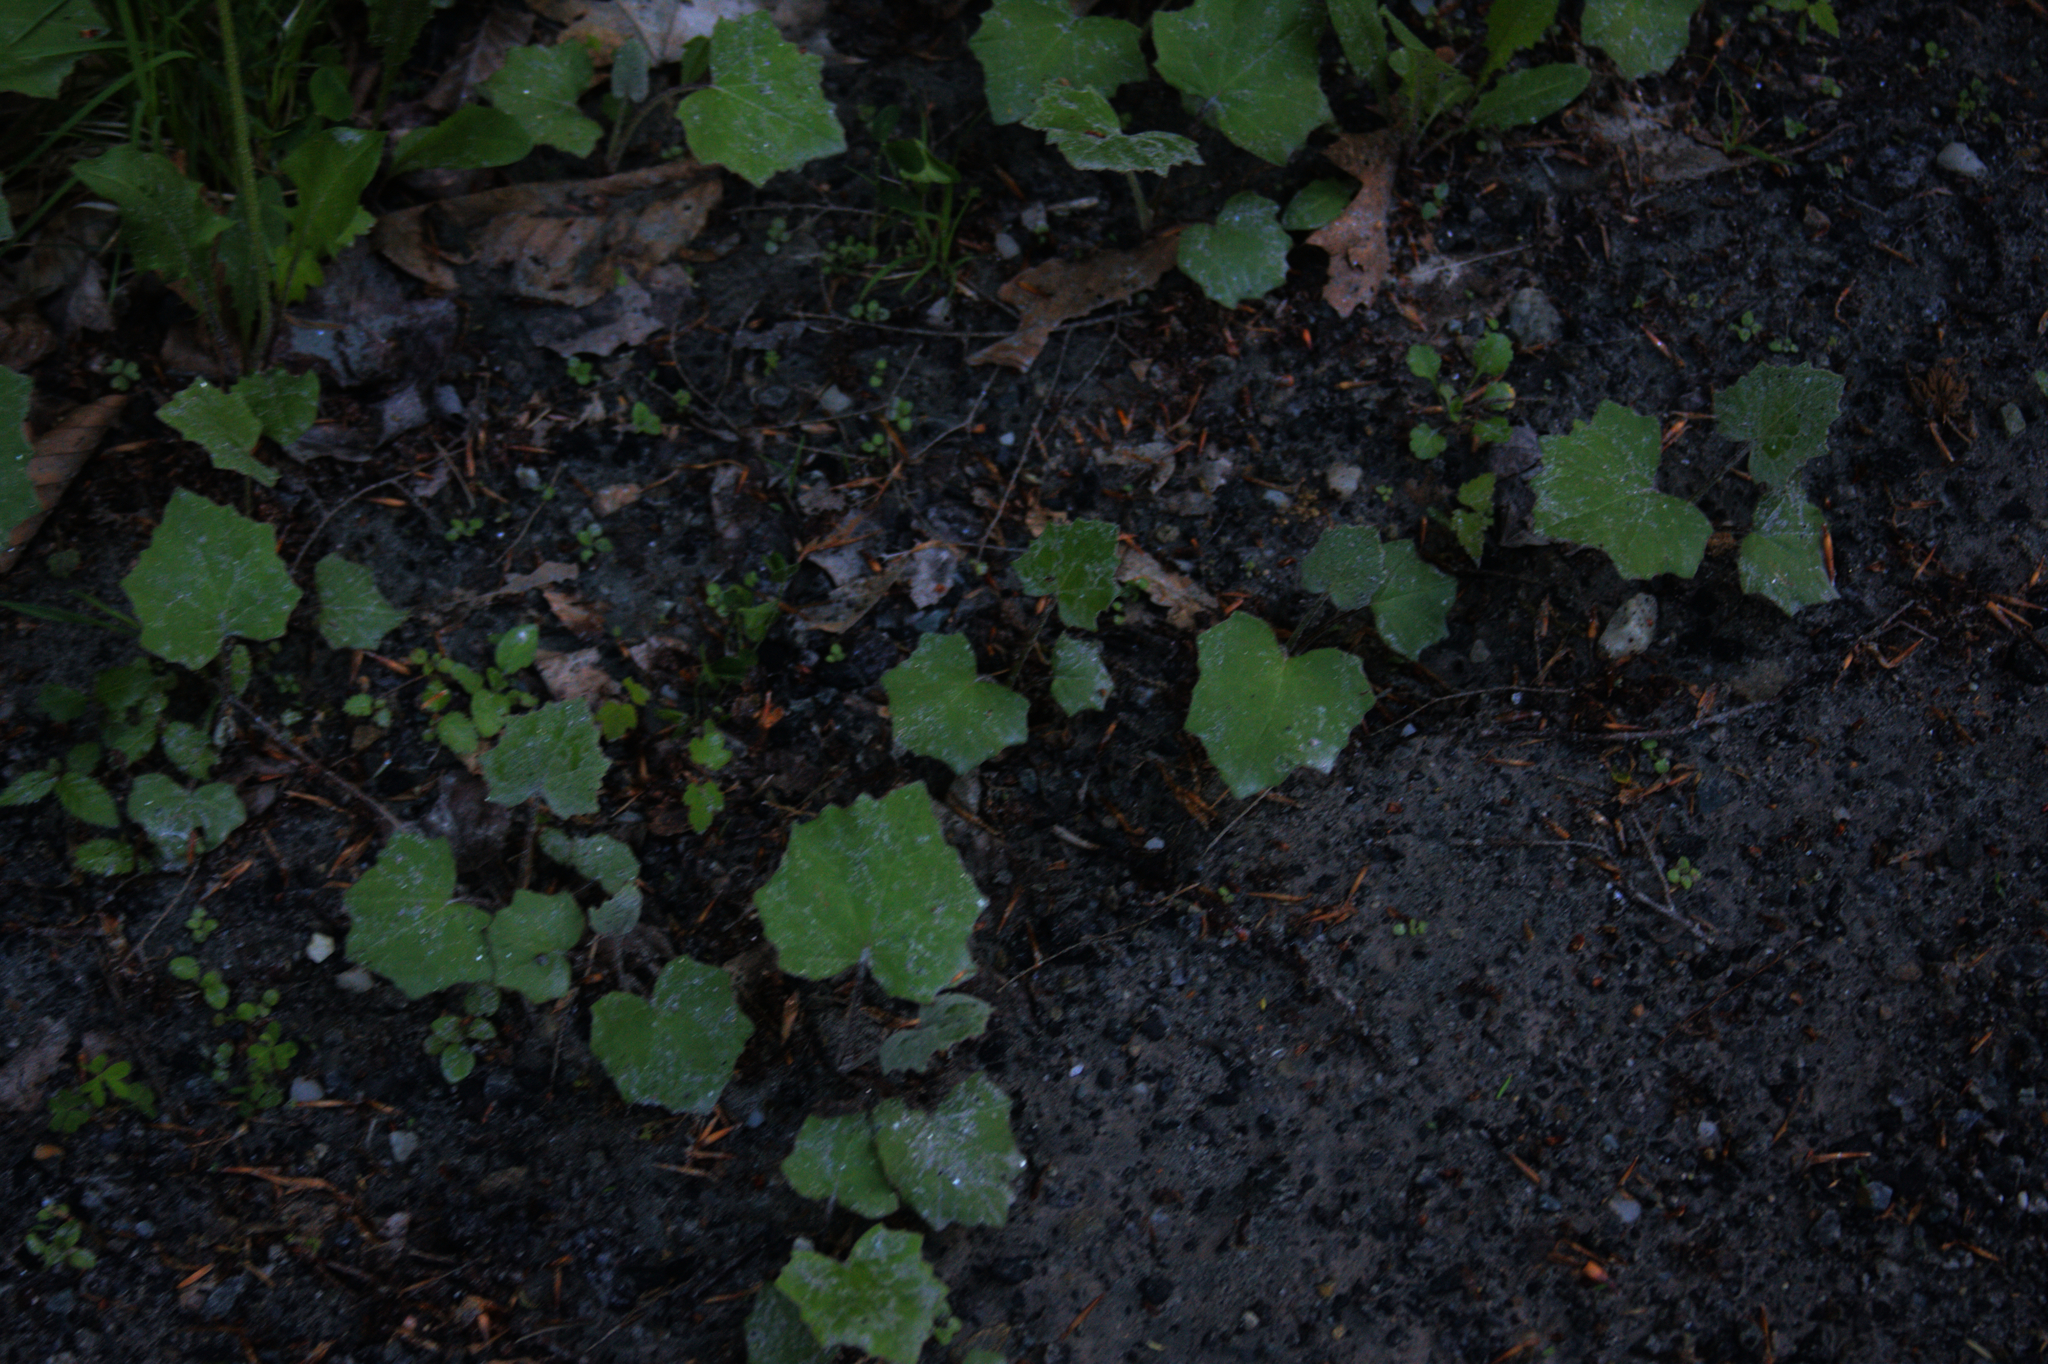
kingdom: Plantae
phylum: Tracheophyta
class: Magnoliopsida
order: Asterales
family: Asteraceae
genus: Tussilago
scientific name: Tussilago farfara
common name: Coltsfoot
